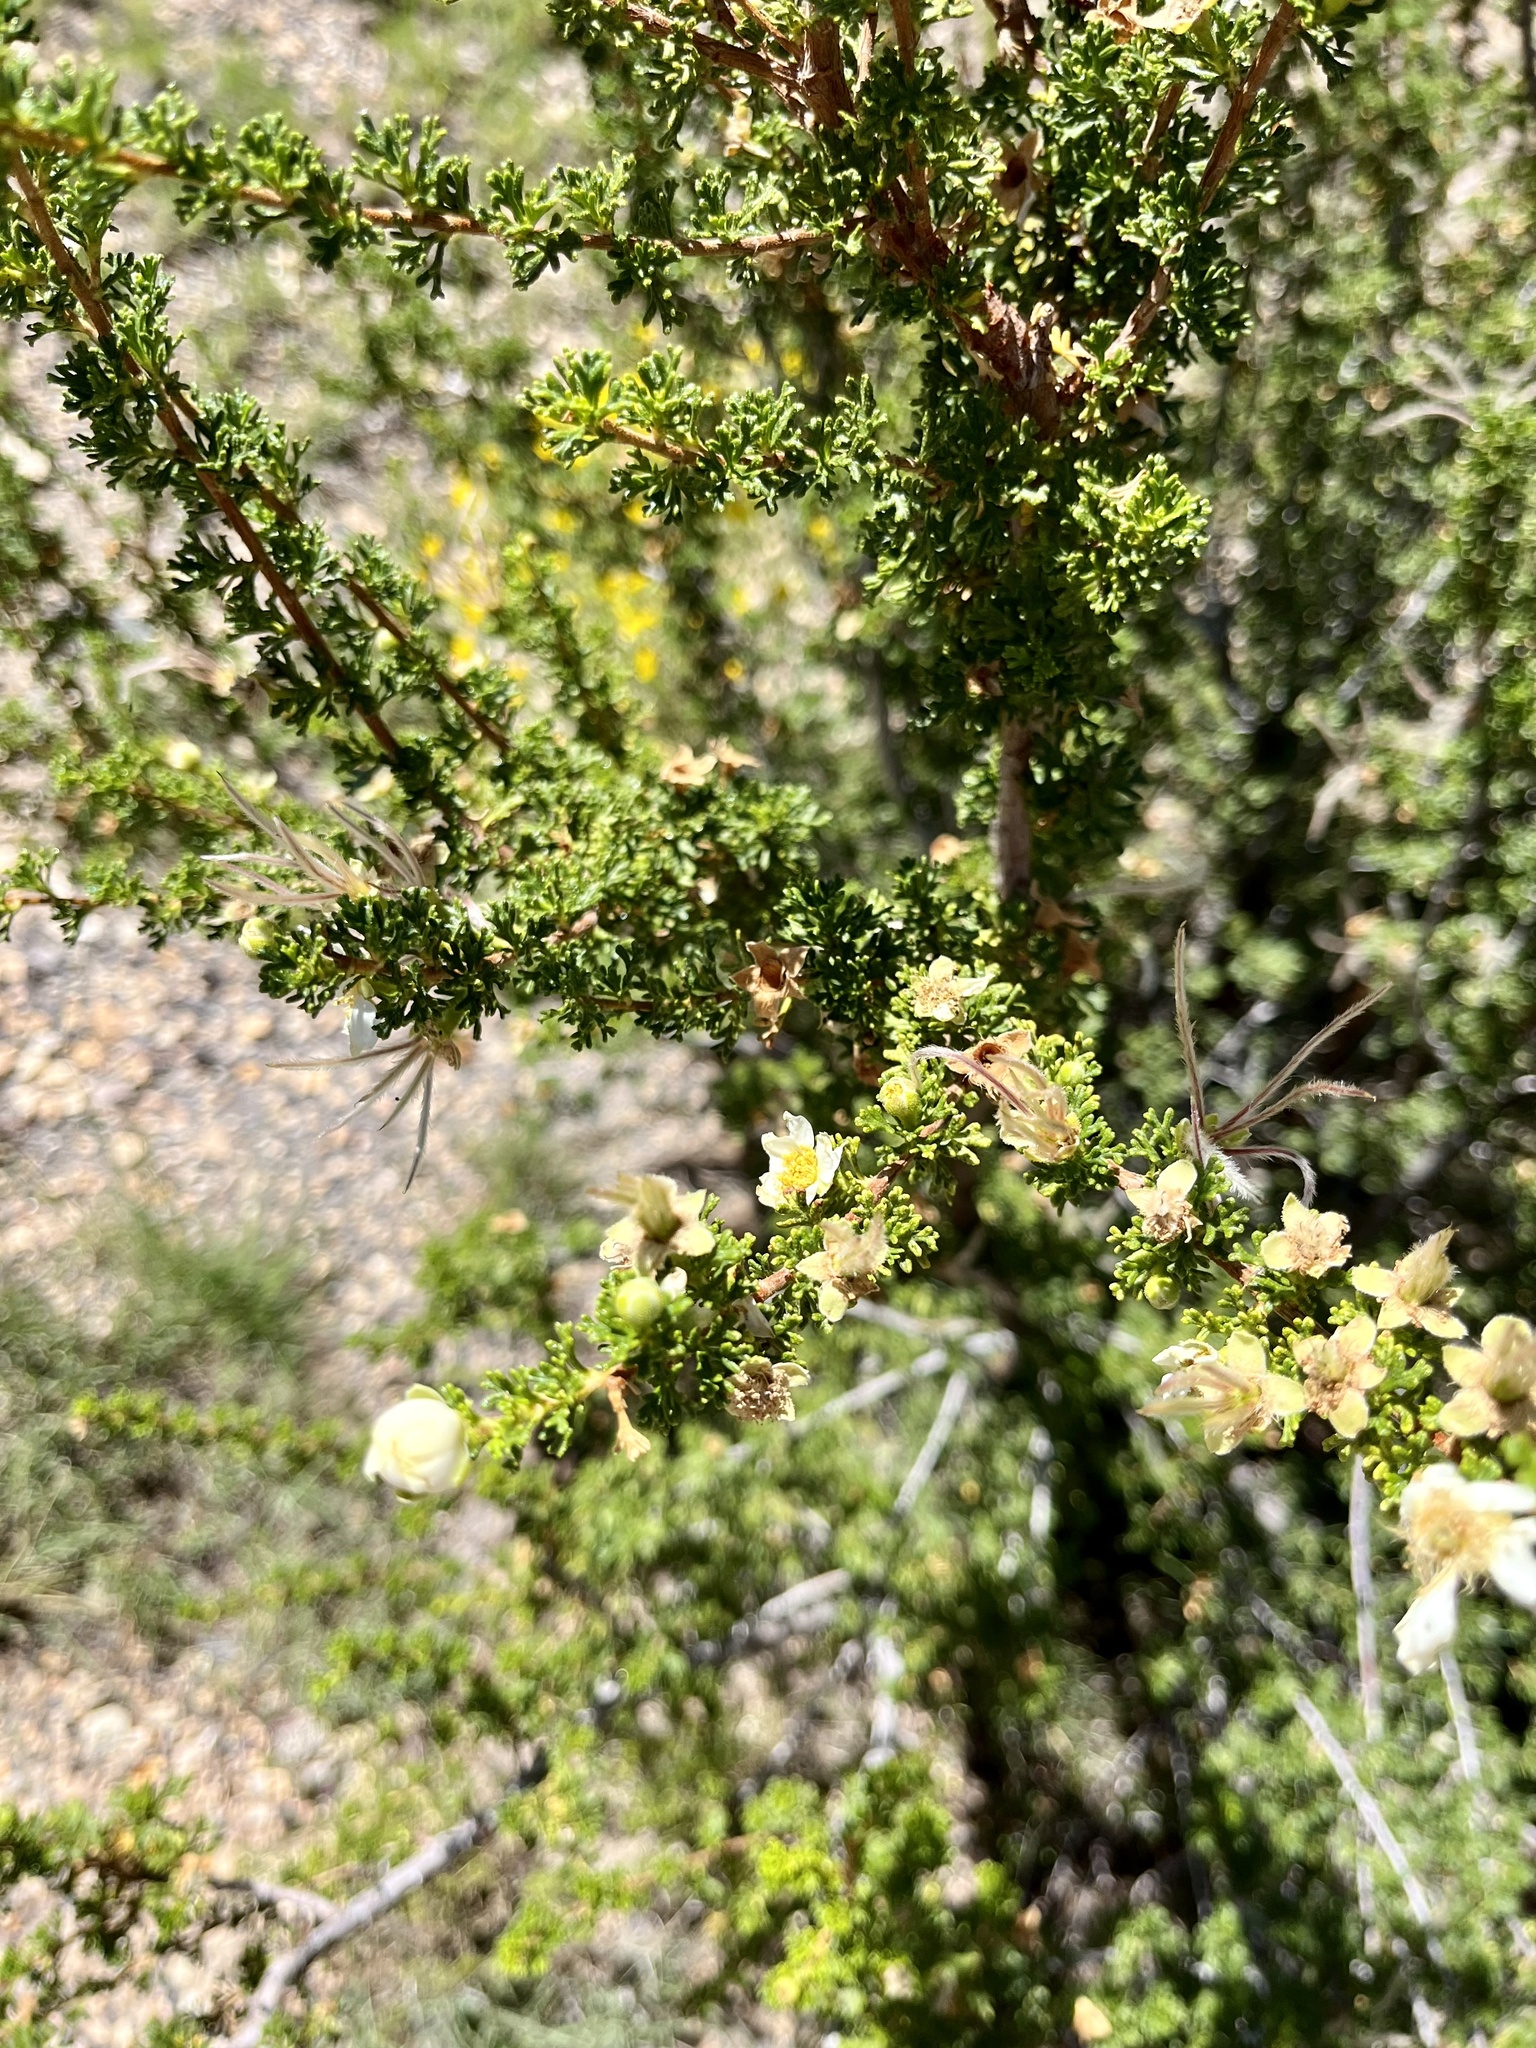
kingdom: Plantae
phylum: Tracheophyta
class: Magnoliopsida
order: Rosales
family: Rosaceae
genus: Purshia
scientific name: Purshia stansburiana
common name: Stansbury's cliffrose
